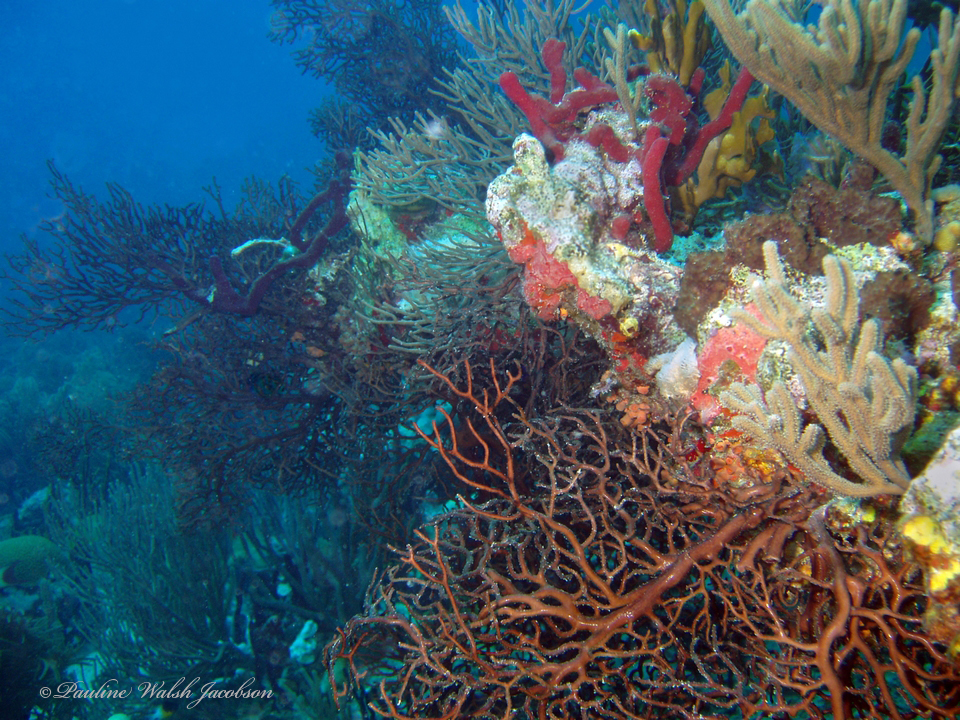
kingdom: Animalia
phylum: Cnidaria
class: Anthozoa
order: Malacalcyonacea
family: Melithaeidae
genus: Iciligorgia
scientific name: Iciligorgia schrammi
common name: Black sea fan
